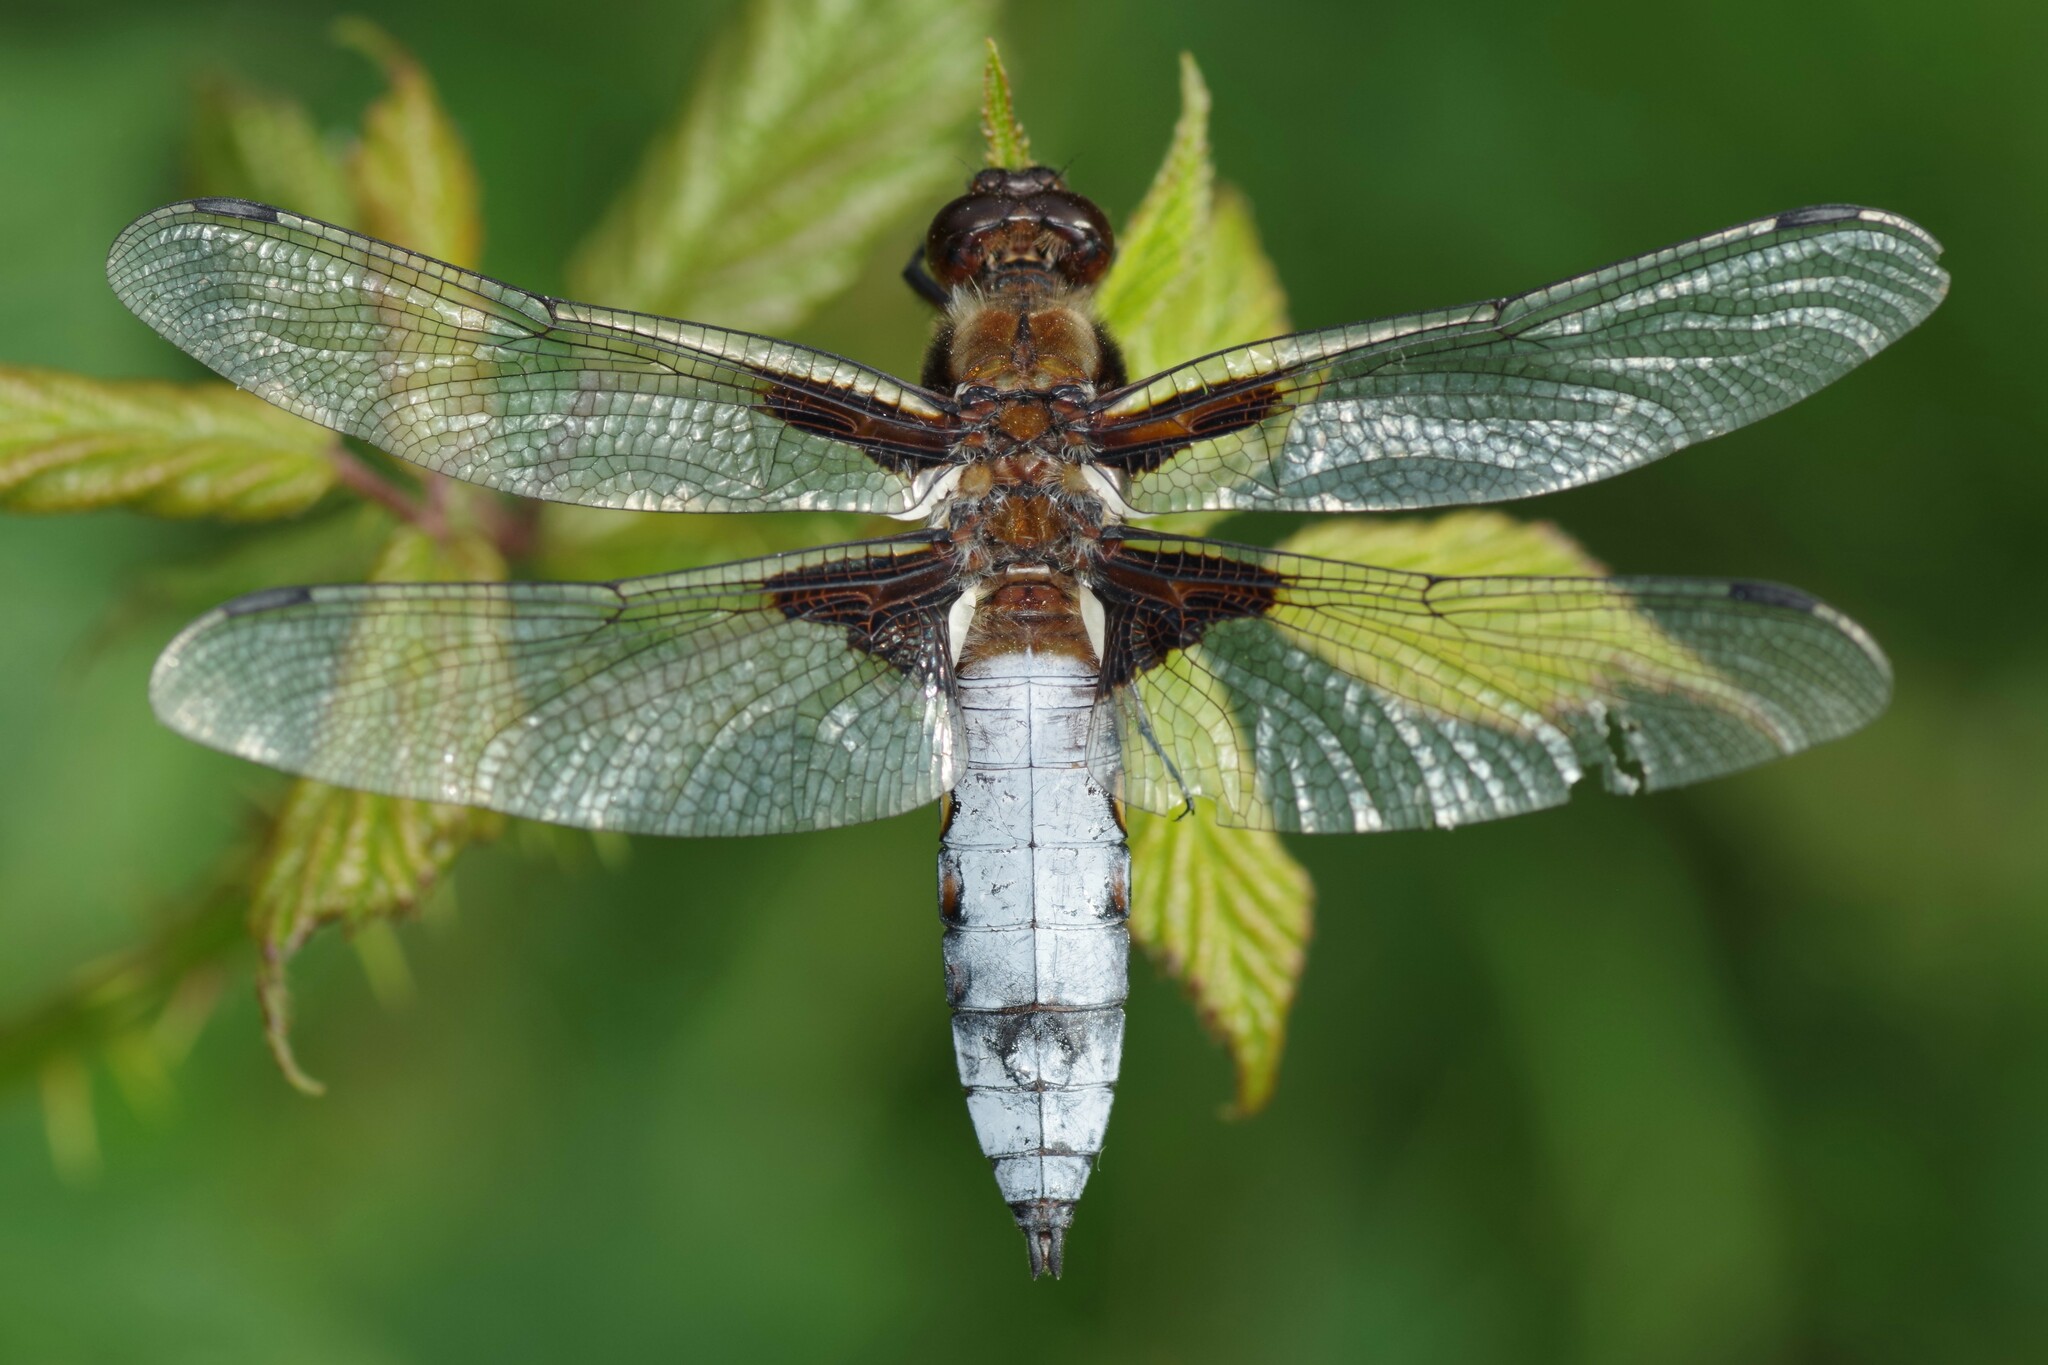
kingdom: Animalia
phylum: Arthropoda
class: Insecta
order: Odonata
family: Libellulidae
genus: Libellula
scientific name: Libellula depressa
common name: Broad-bodied chaser
